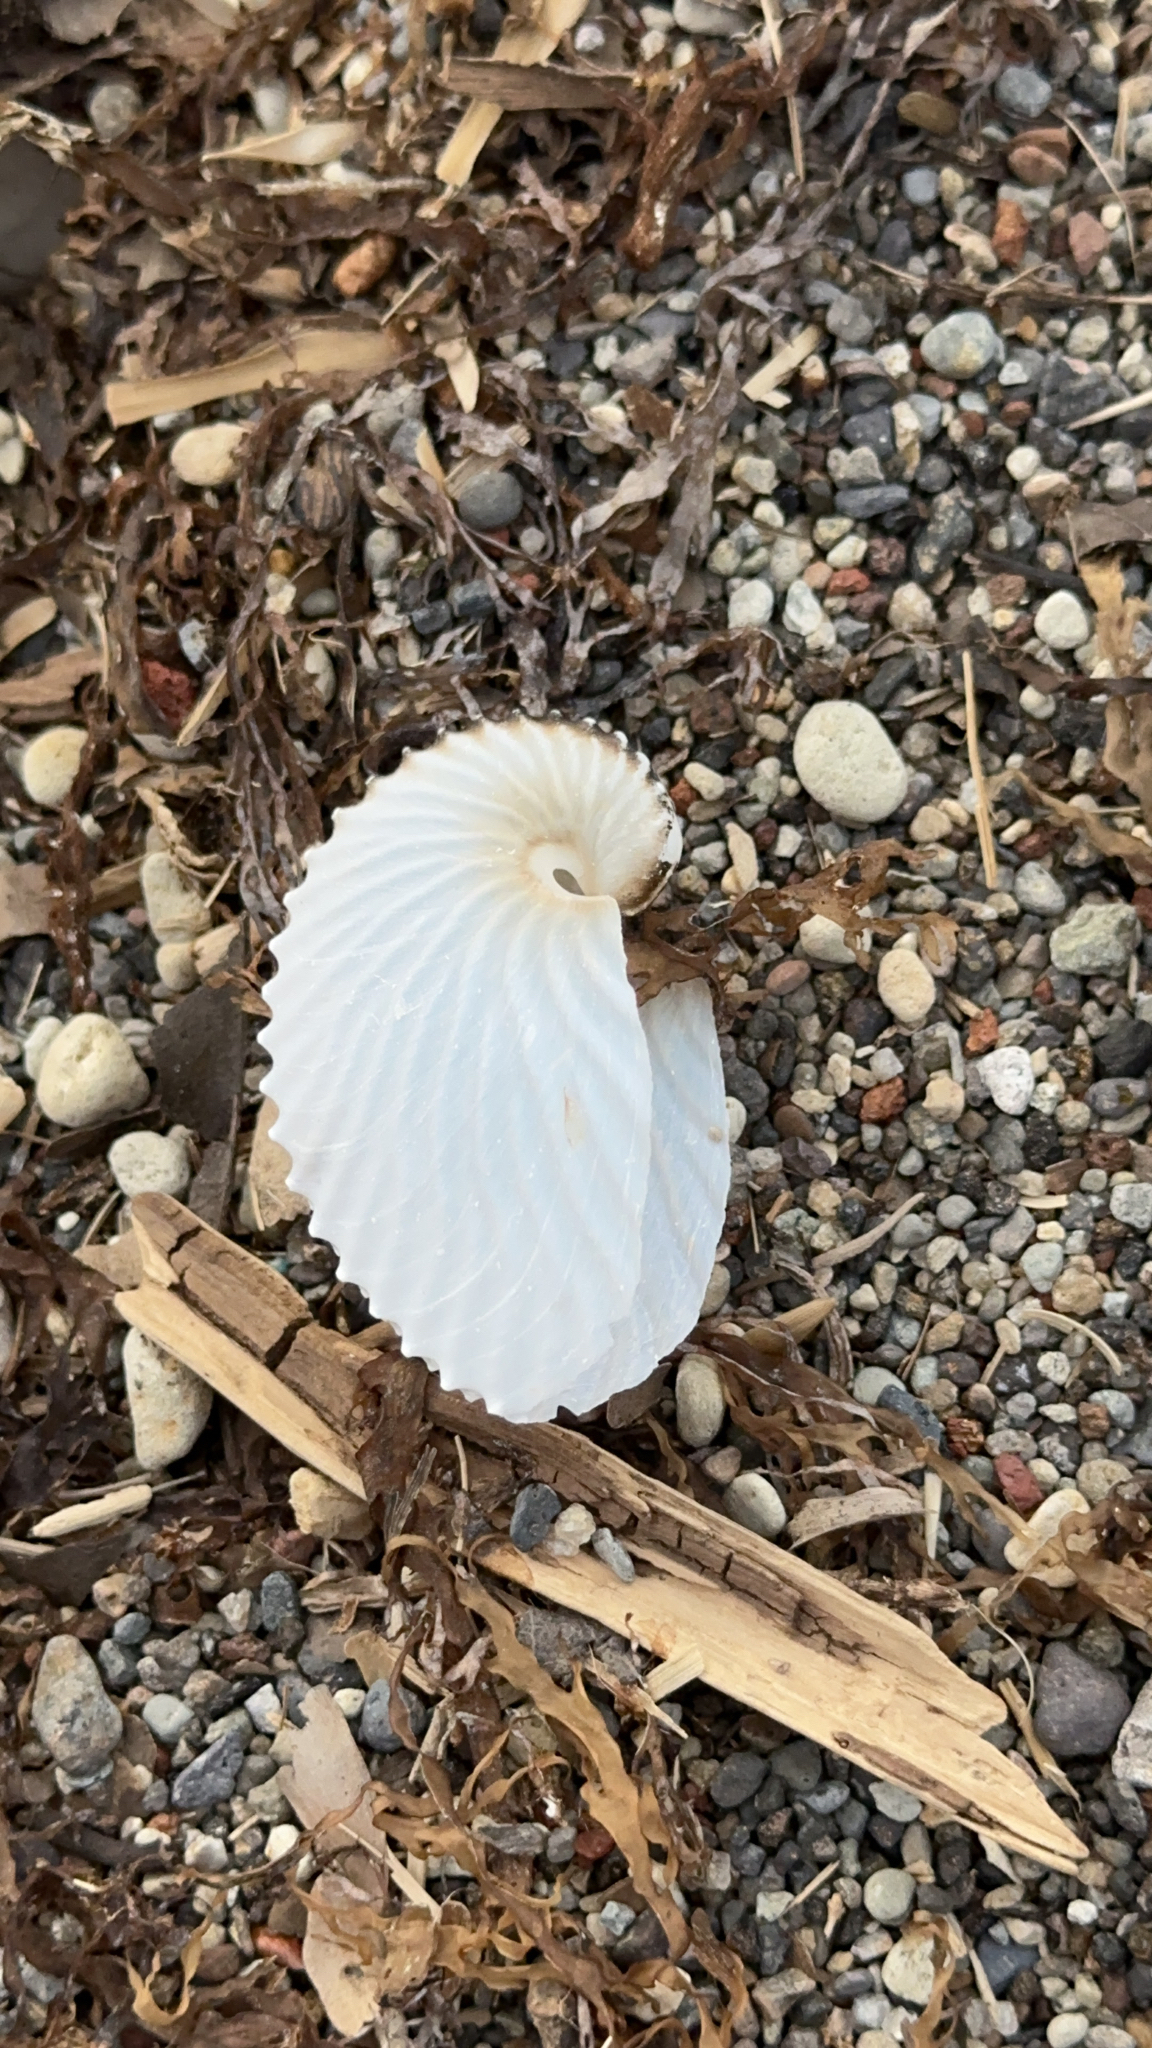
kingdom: Animalia
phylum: Mollusca
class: Cephalopoda
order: Octopoda
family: Argonautidae
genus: Argonauta
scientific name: Argonauta argo
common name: Common paper nautilus
